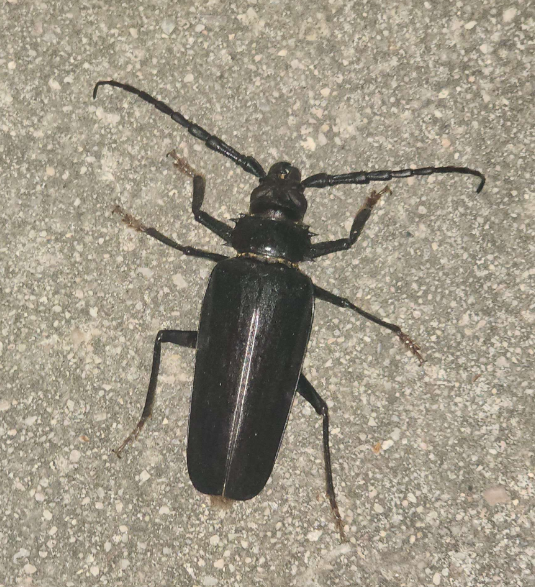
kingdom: Animalia
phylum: Arthropoda
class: Insecta
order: Coleoptera
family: Cerambycidae
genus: Derobrachus
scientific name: Derobrachus hovorei
